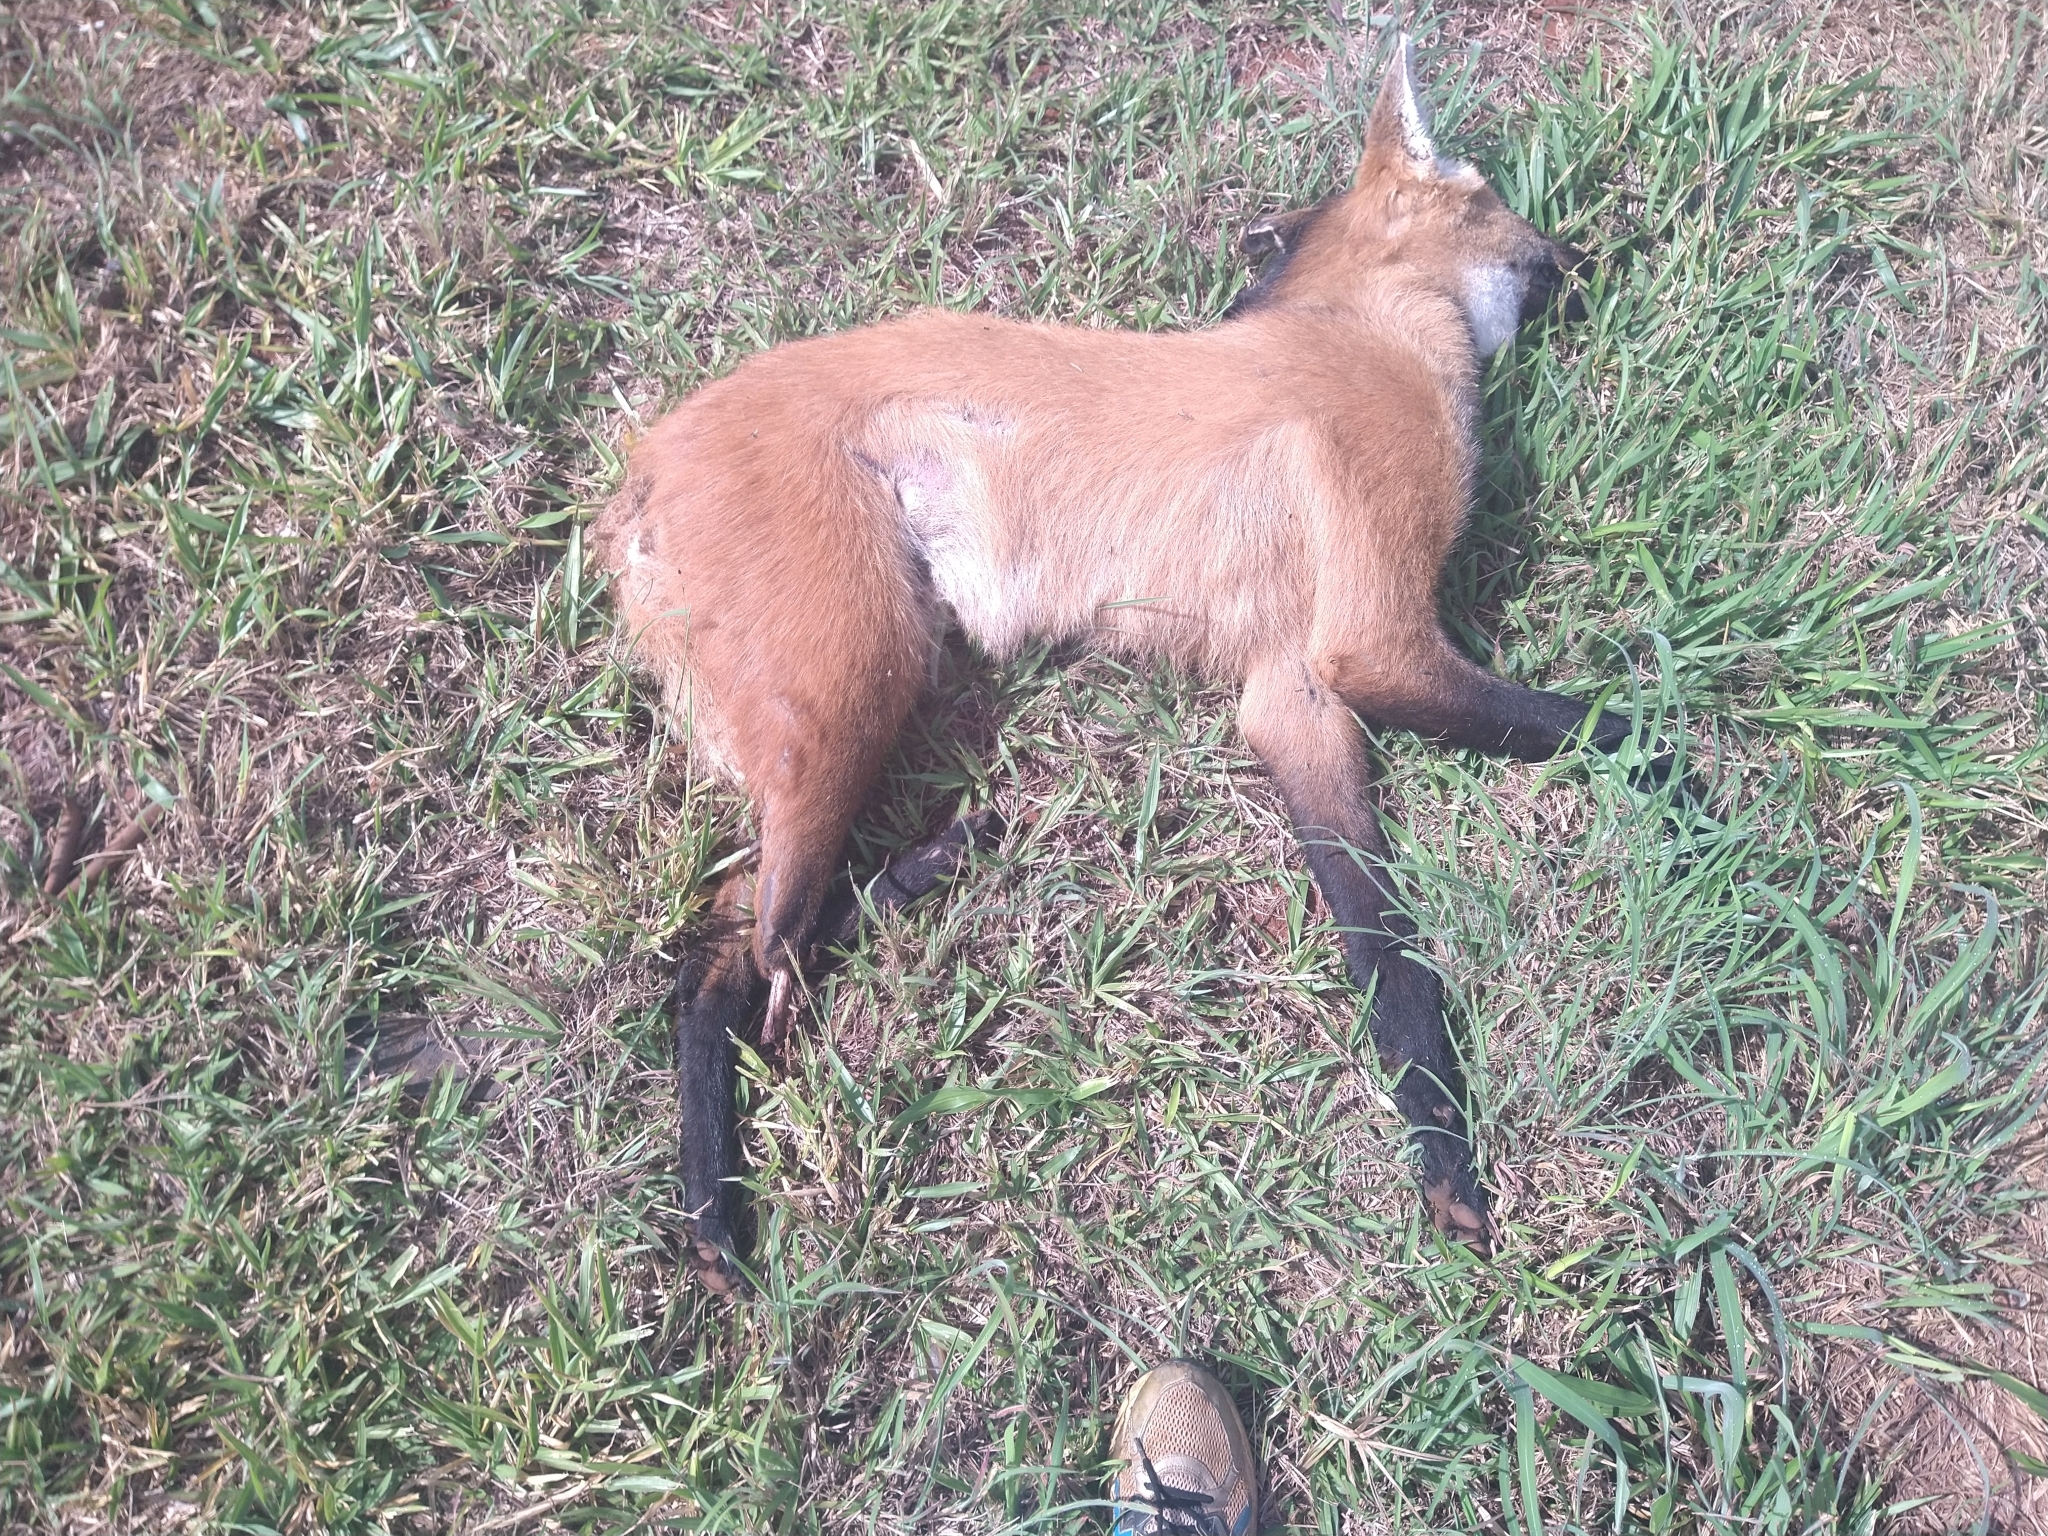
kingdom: Animalia
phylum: Chordata
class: Mammalia
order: Carnivora
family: Canidae
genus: Chrysocyon
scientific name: Chrysocyon brachyurus
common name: Maned wolf
